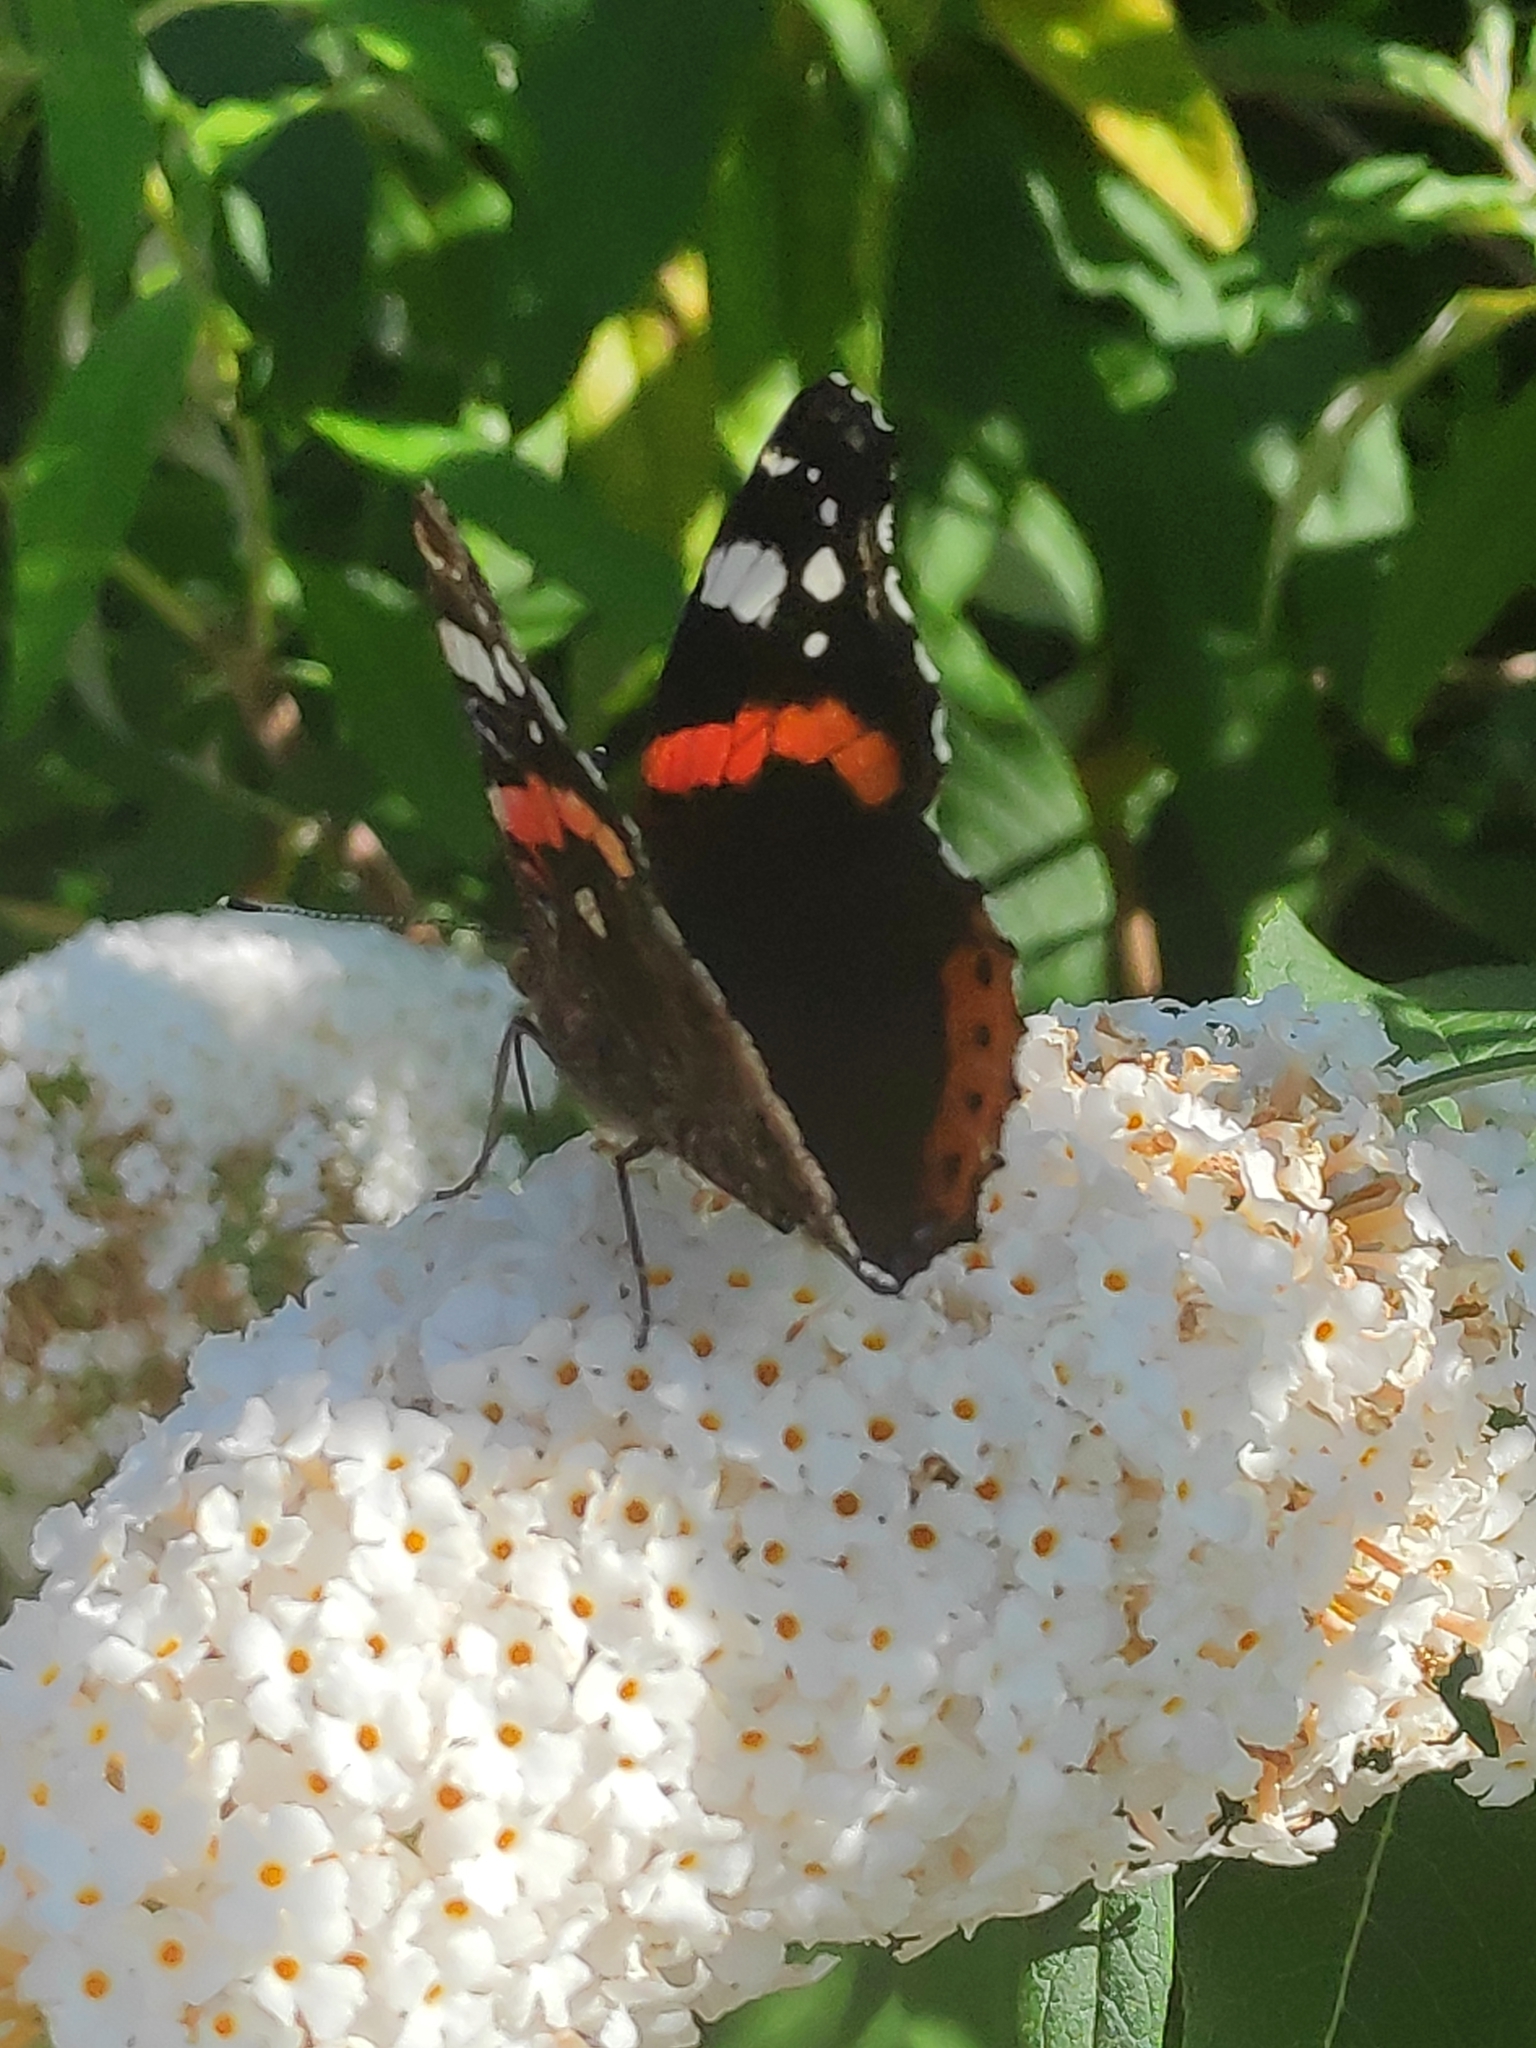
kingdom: Animalia
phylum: Arthropoda
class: Insecta
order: Lepidoptera
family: Nymphalidae
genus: Vanessa
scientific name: Vanessa atalanta
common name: Red admiral
